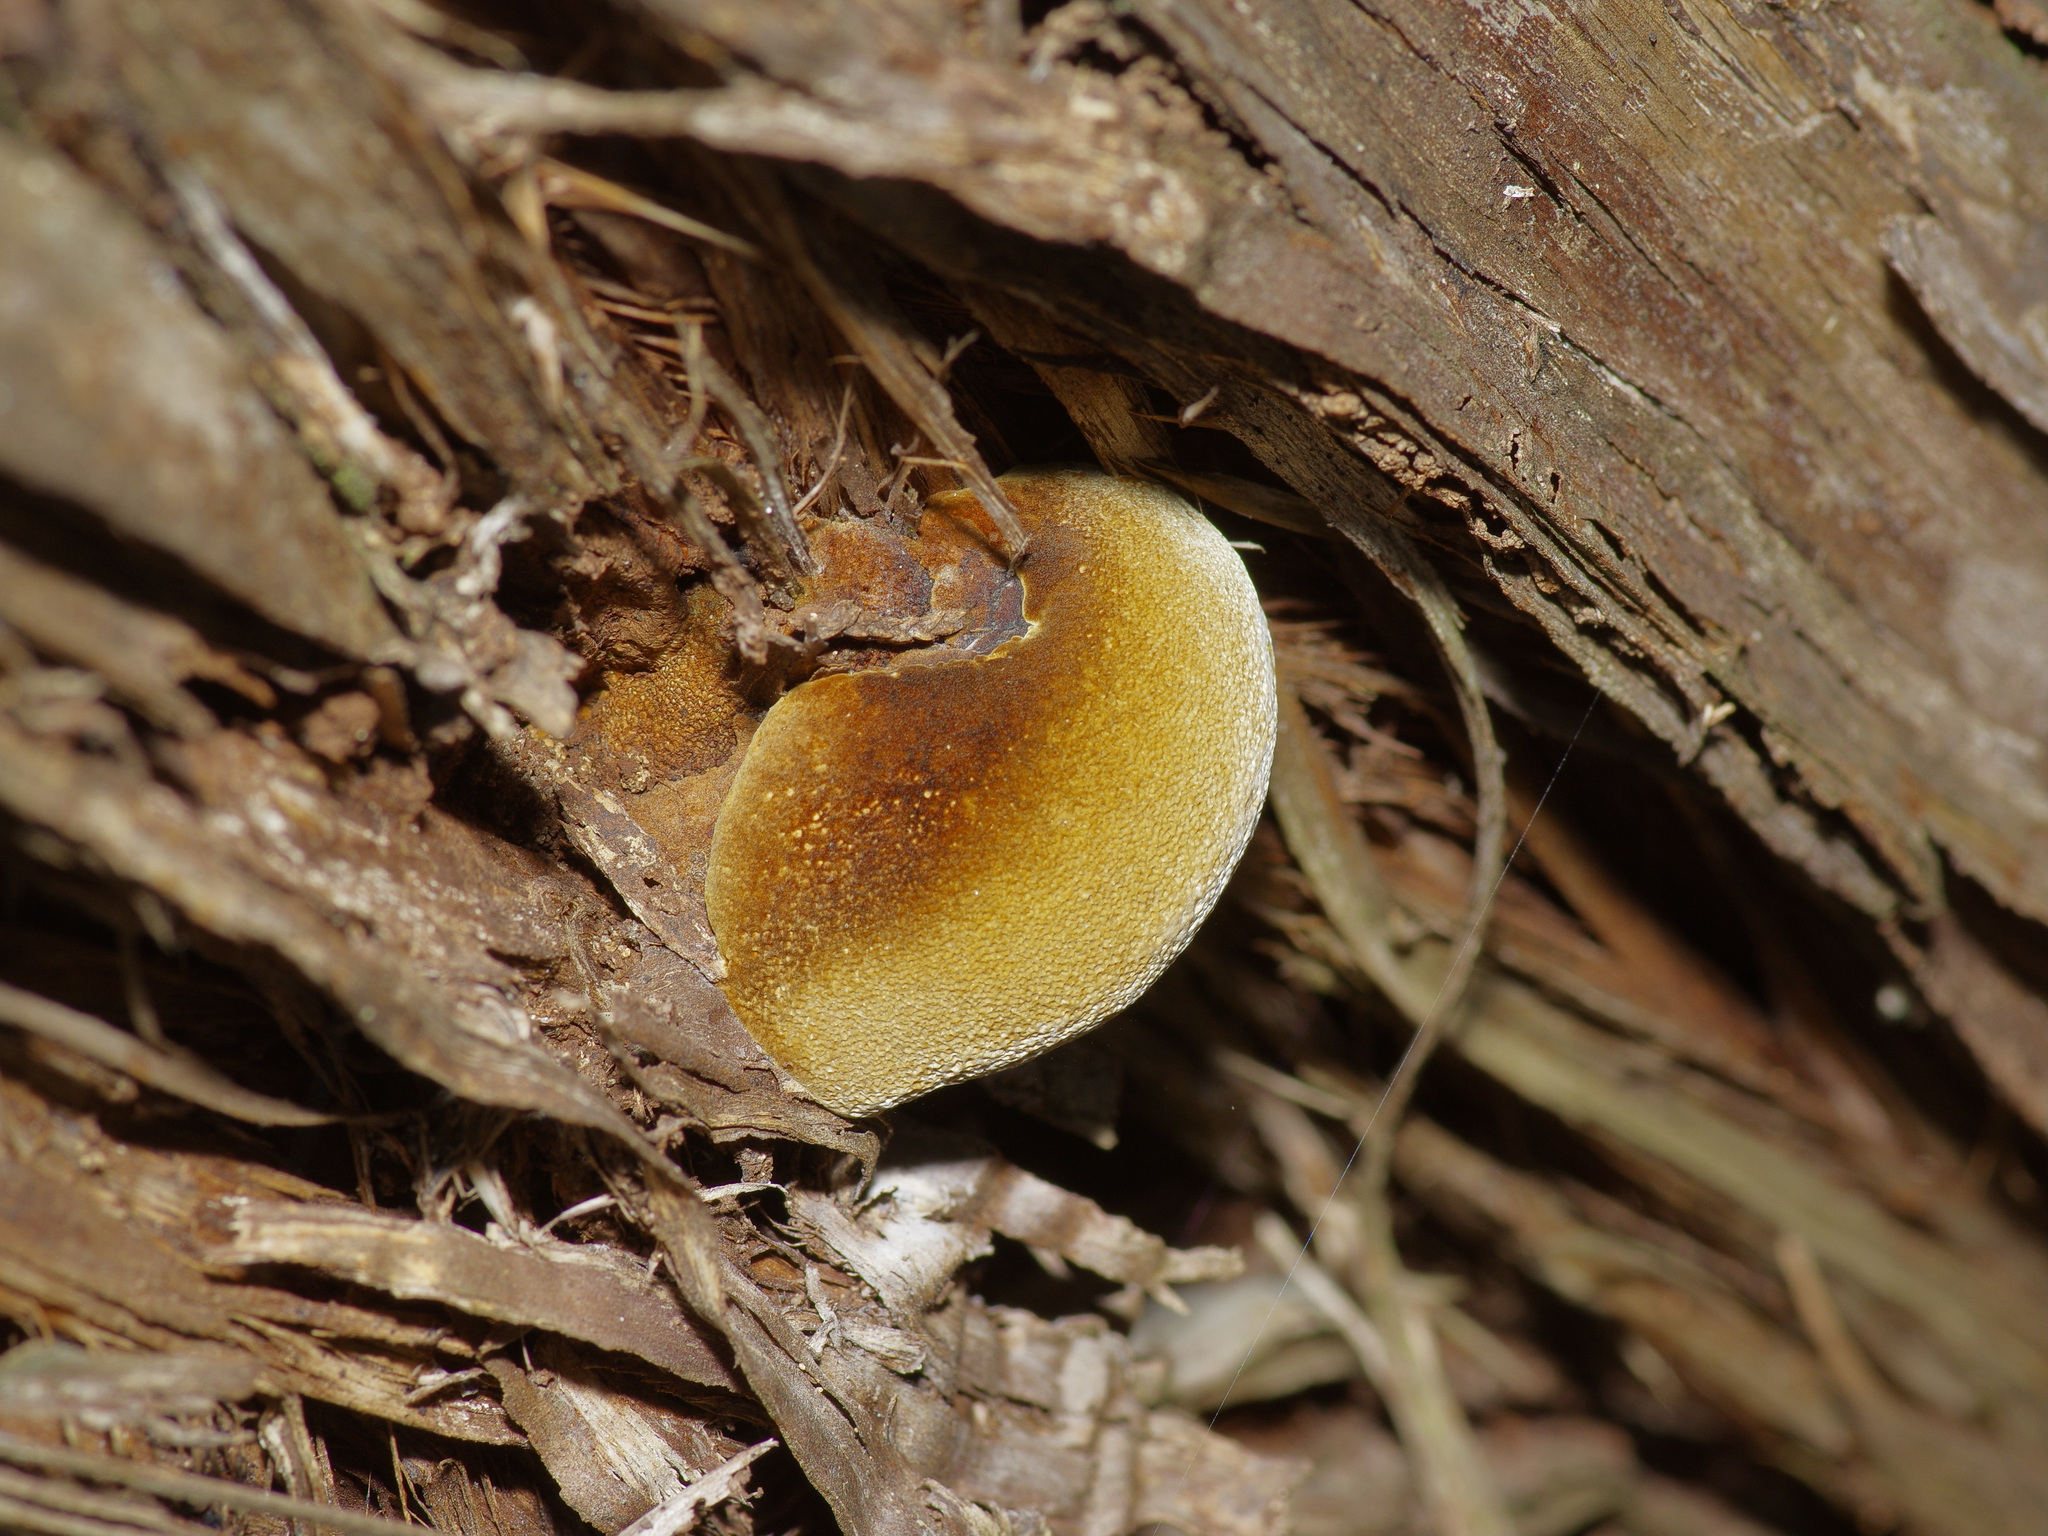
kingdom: Fungi
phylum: Basidiomycota
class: Agaricomycetes
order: Polyporales
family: Polyporaceae
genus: Pyrofomes
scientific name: Pyrofomes juniperinus
